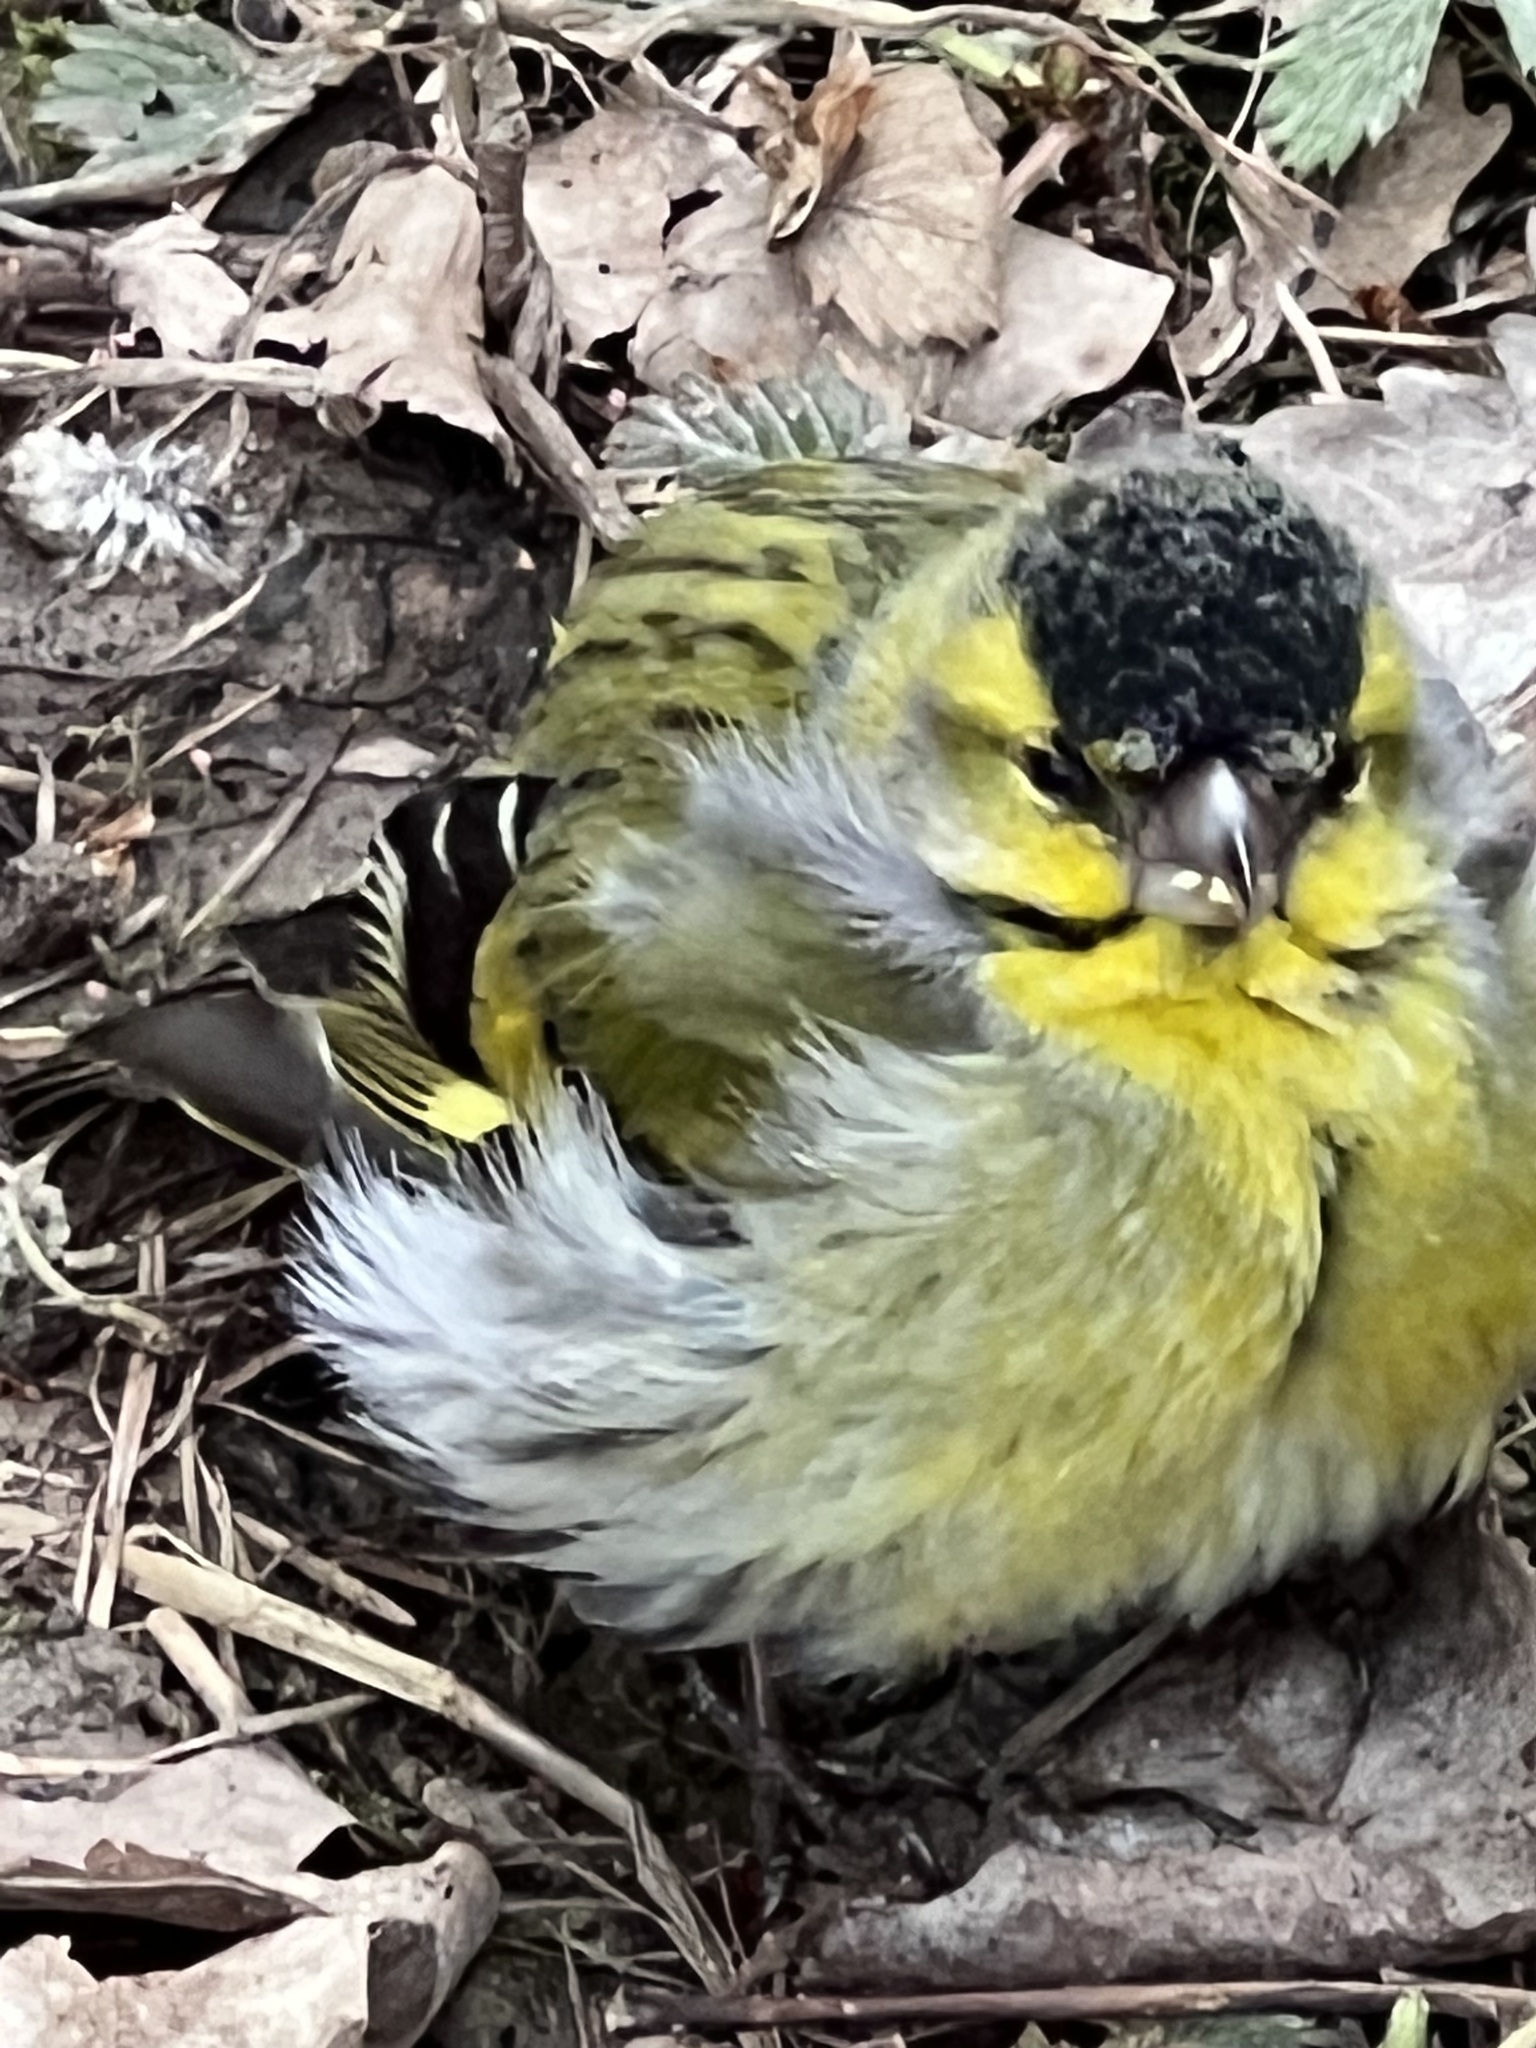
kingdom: Animalia
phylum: Chordata
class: Aves
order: Passeriformes
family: Fringillidae
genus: Spinus
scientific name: Spinus spinus
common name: Eurasian siskin
